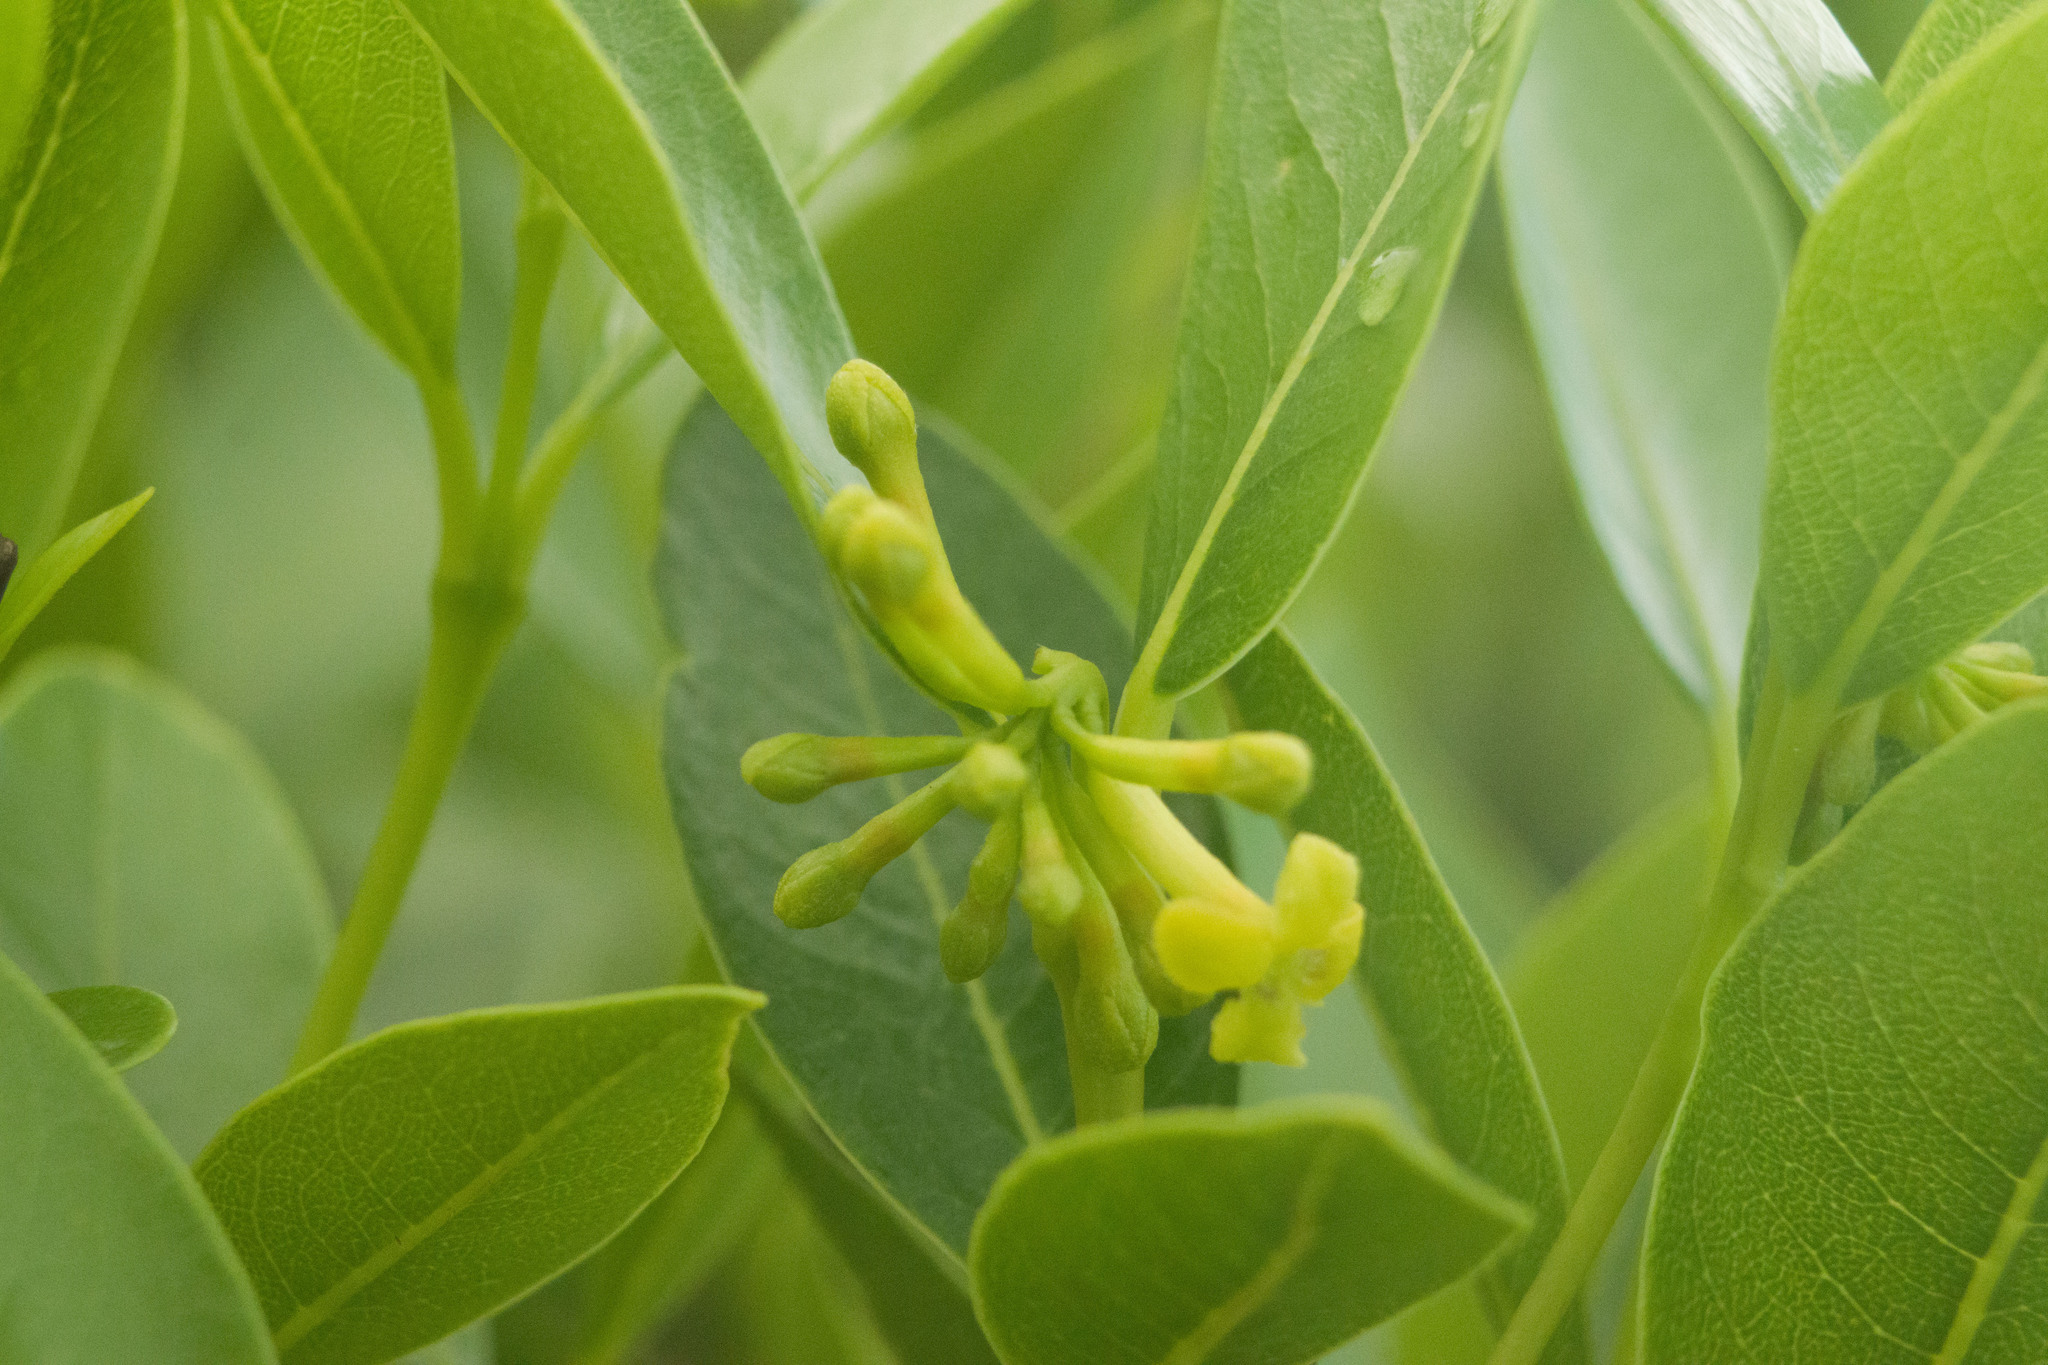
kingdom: Plantae
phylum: Tracheophyta
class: Magnoliopsida
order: Malvales
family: Thymelaeaceae
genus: Wikstroemia
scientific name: Wikstroemia oahuensis
